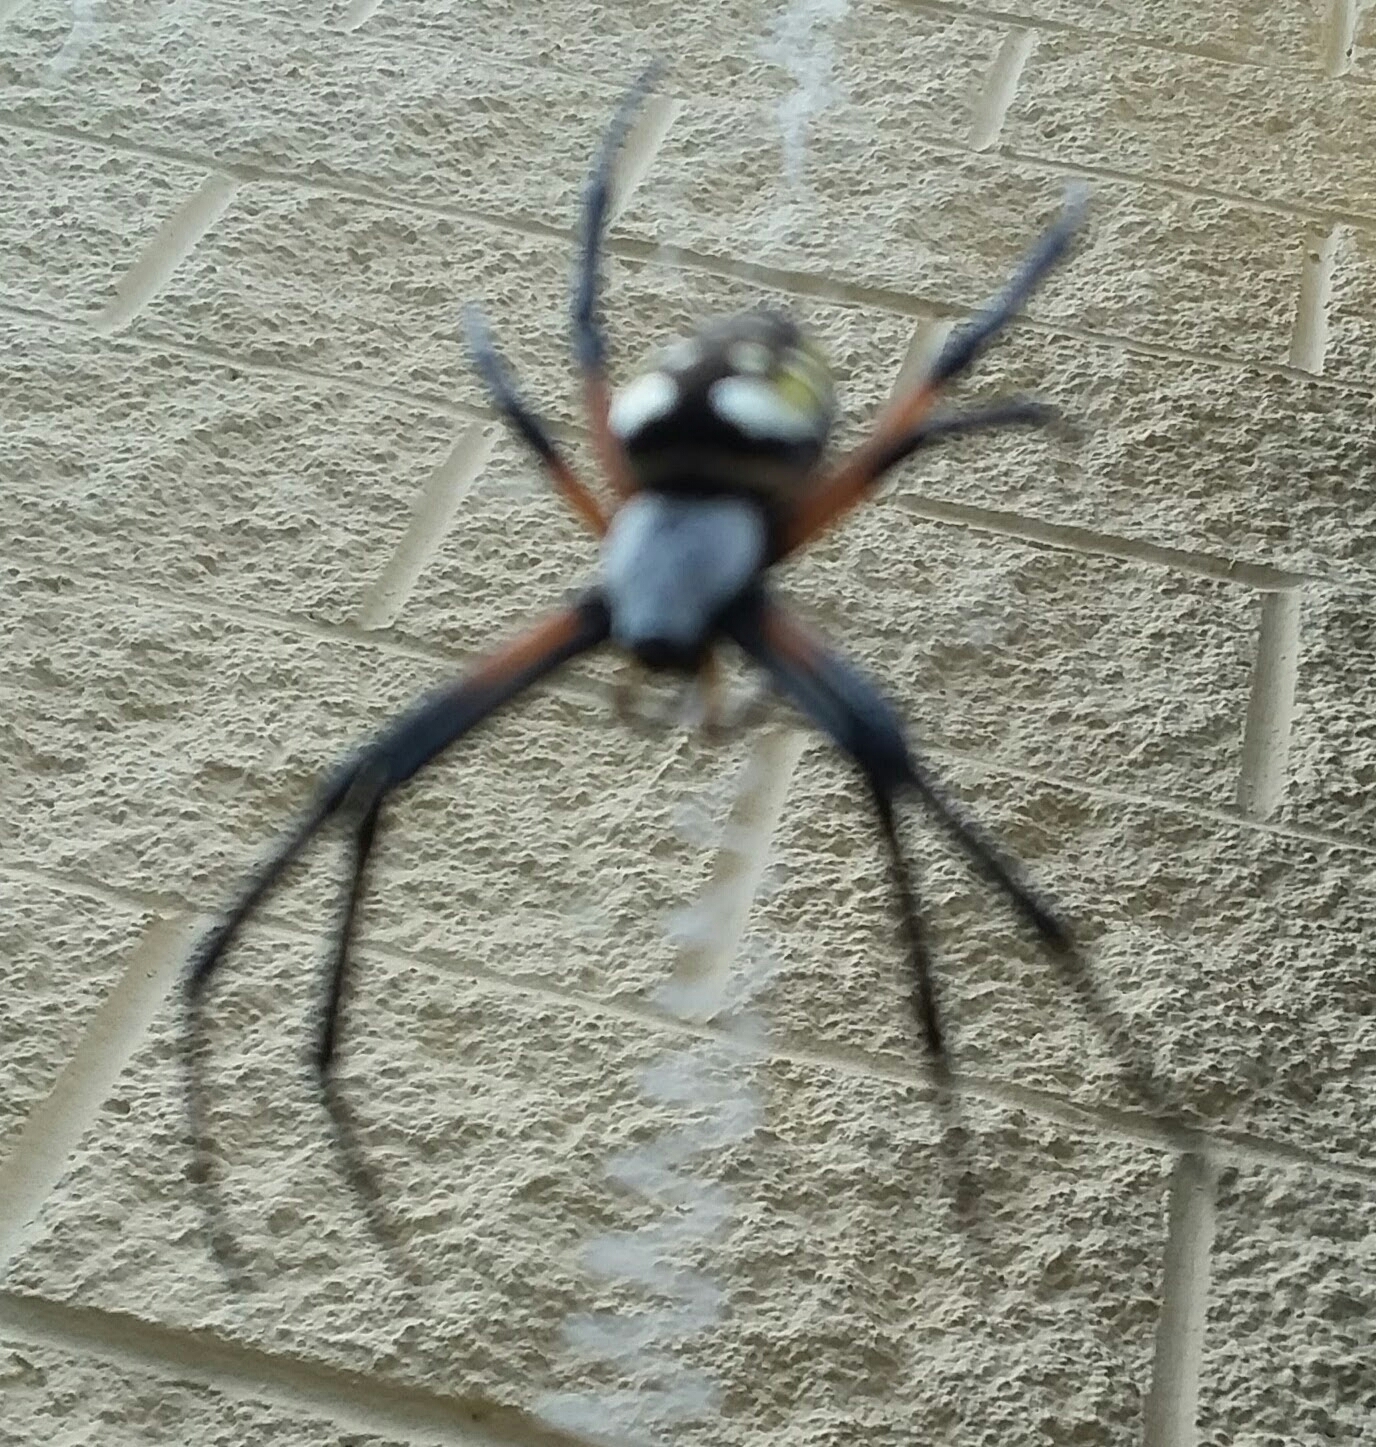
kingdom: Animalia
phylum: Arthropoda
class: Arachnida
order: Araneae
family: Araneidae
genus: Argiope
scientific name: Argiope aurantia
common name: Orb weavers
